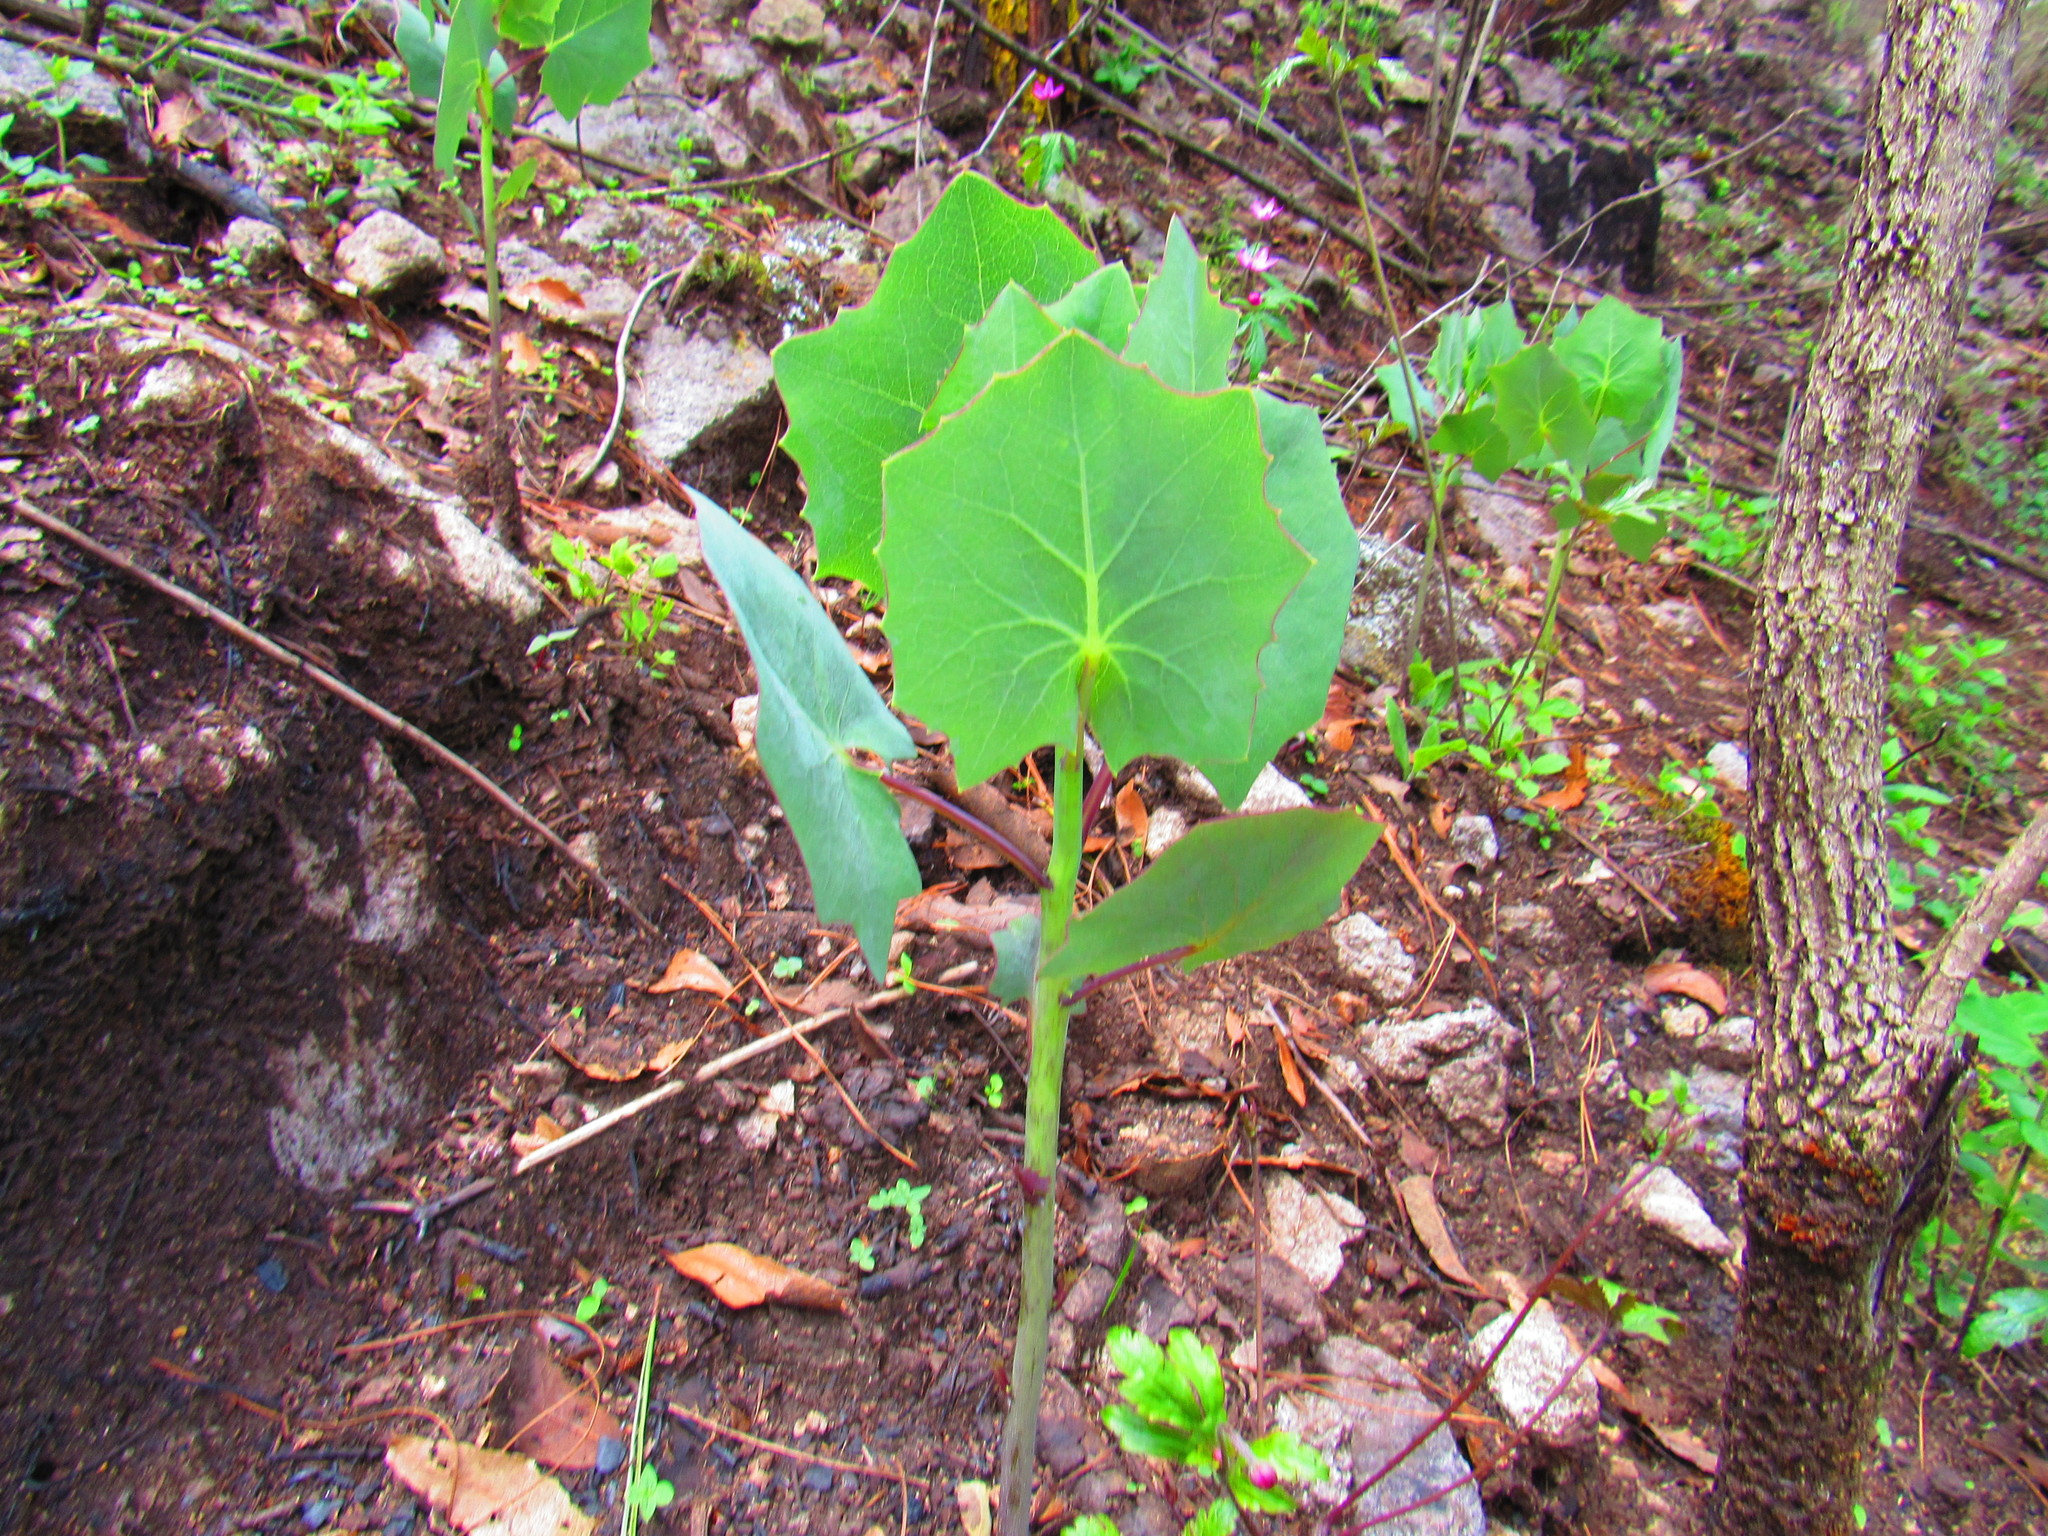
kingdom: Plantae
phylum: Tracheophyta
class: Magnoliopsida
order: Asterales
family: Asteraceae
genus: Roldana
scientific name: Roldana sessilifolia
